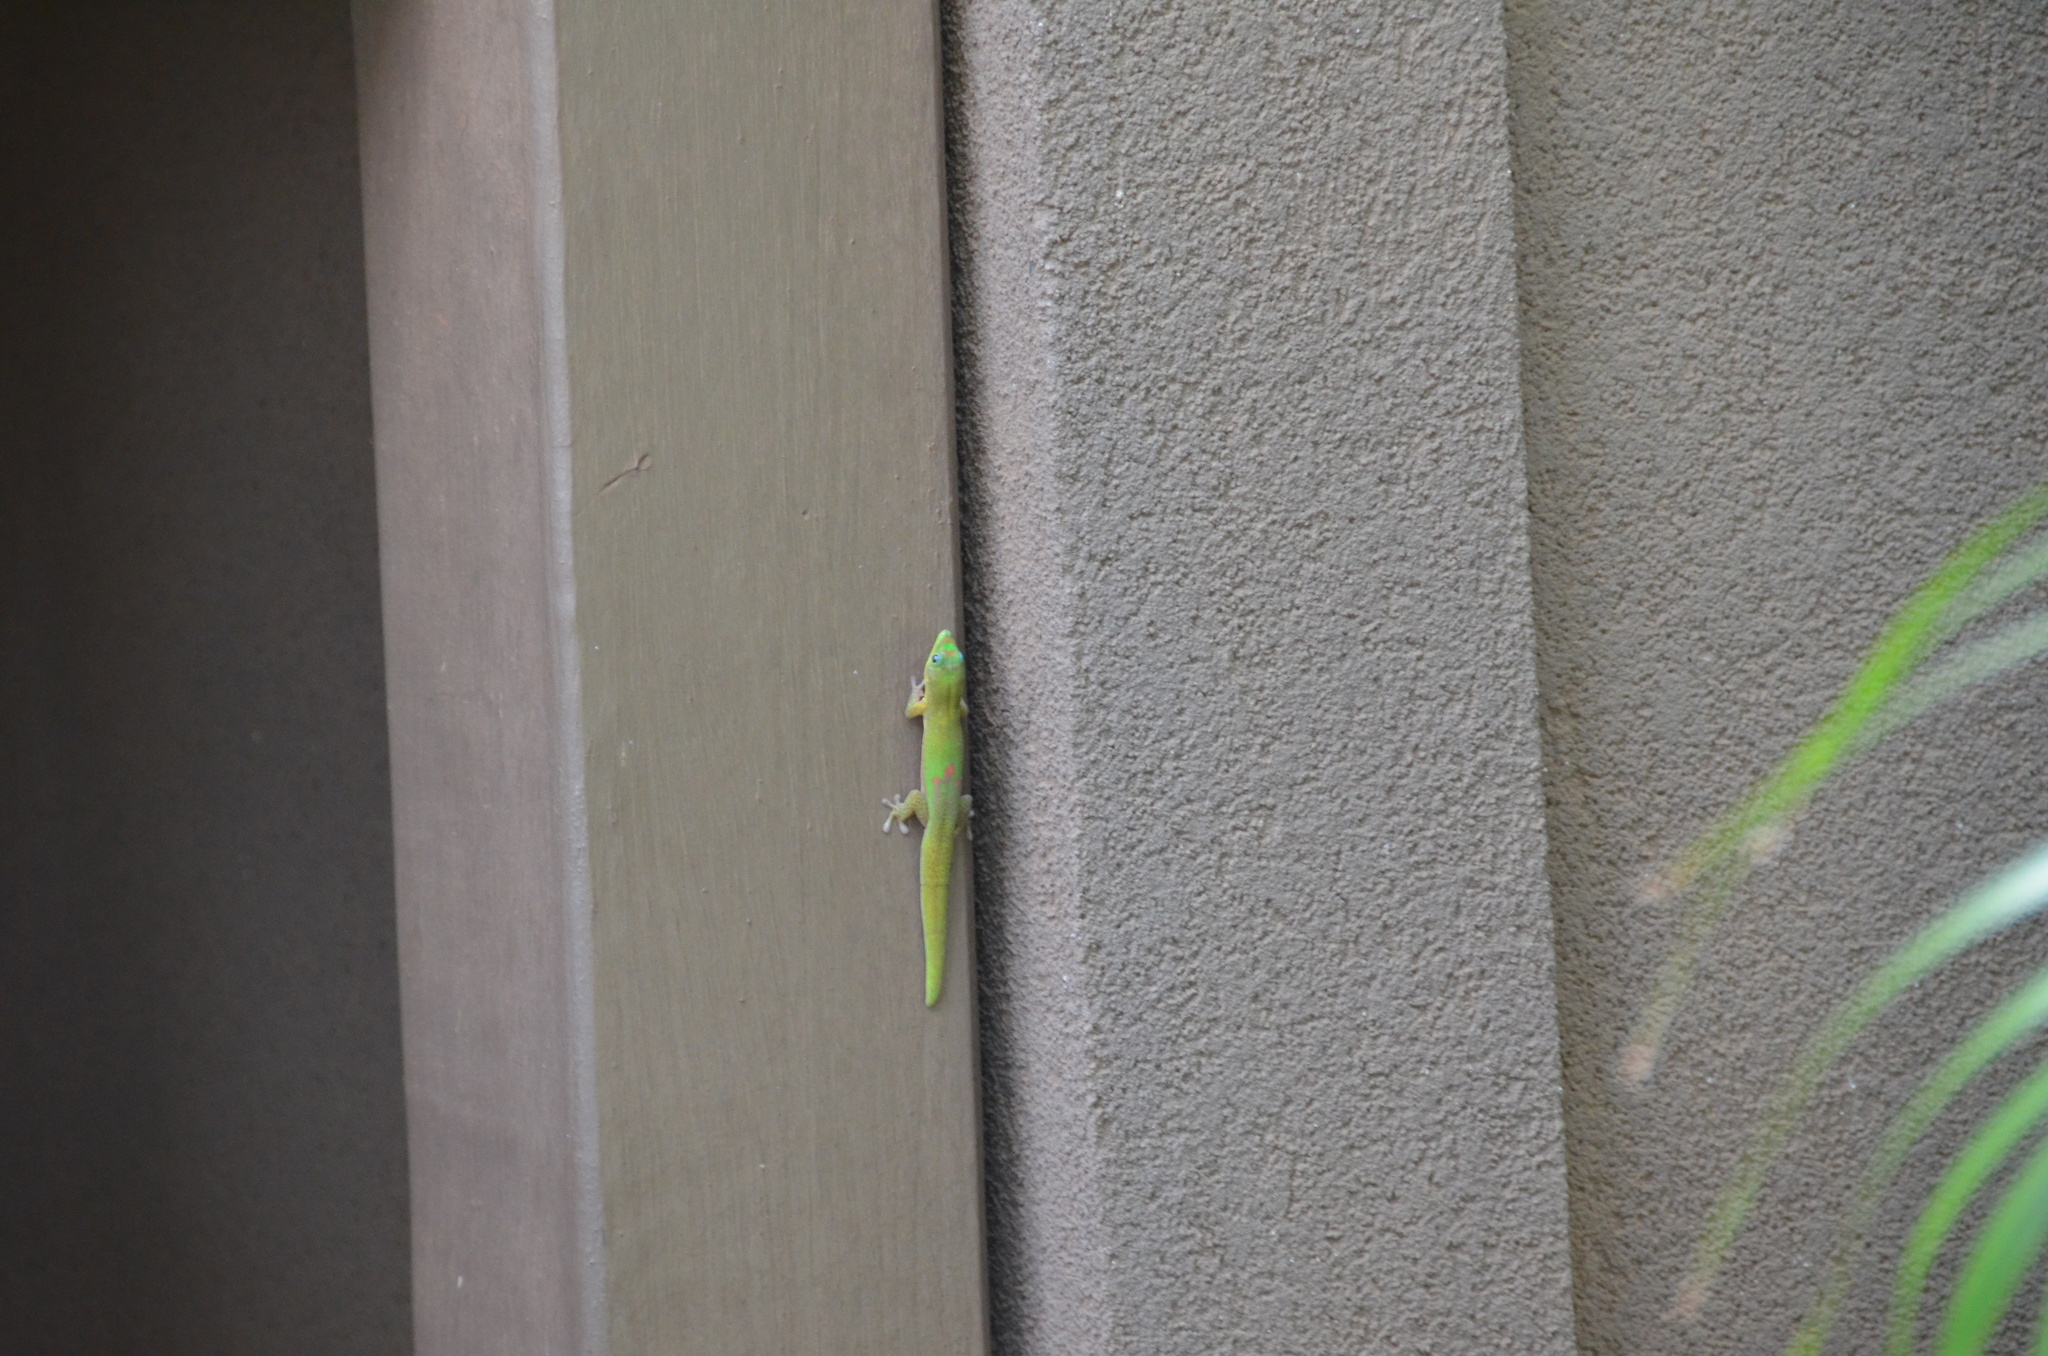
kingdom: Animalia
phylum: Chordata
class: Squamata
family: Gekkonidae
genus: Phelsuma
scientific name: Phelsuma laticauda
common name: Gold dust day gecko
